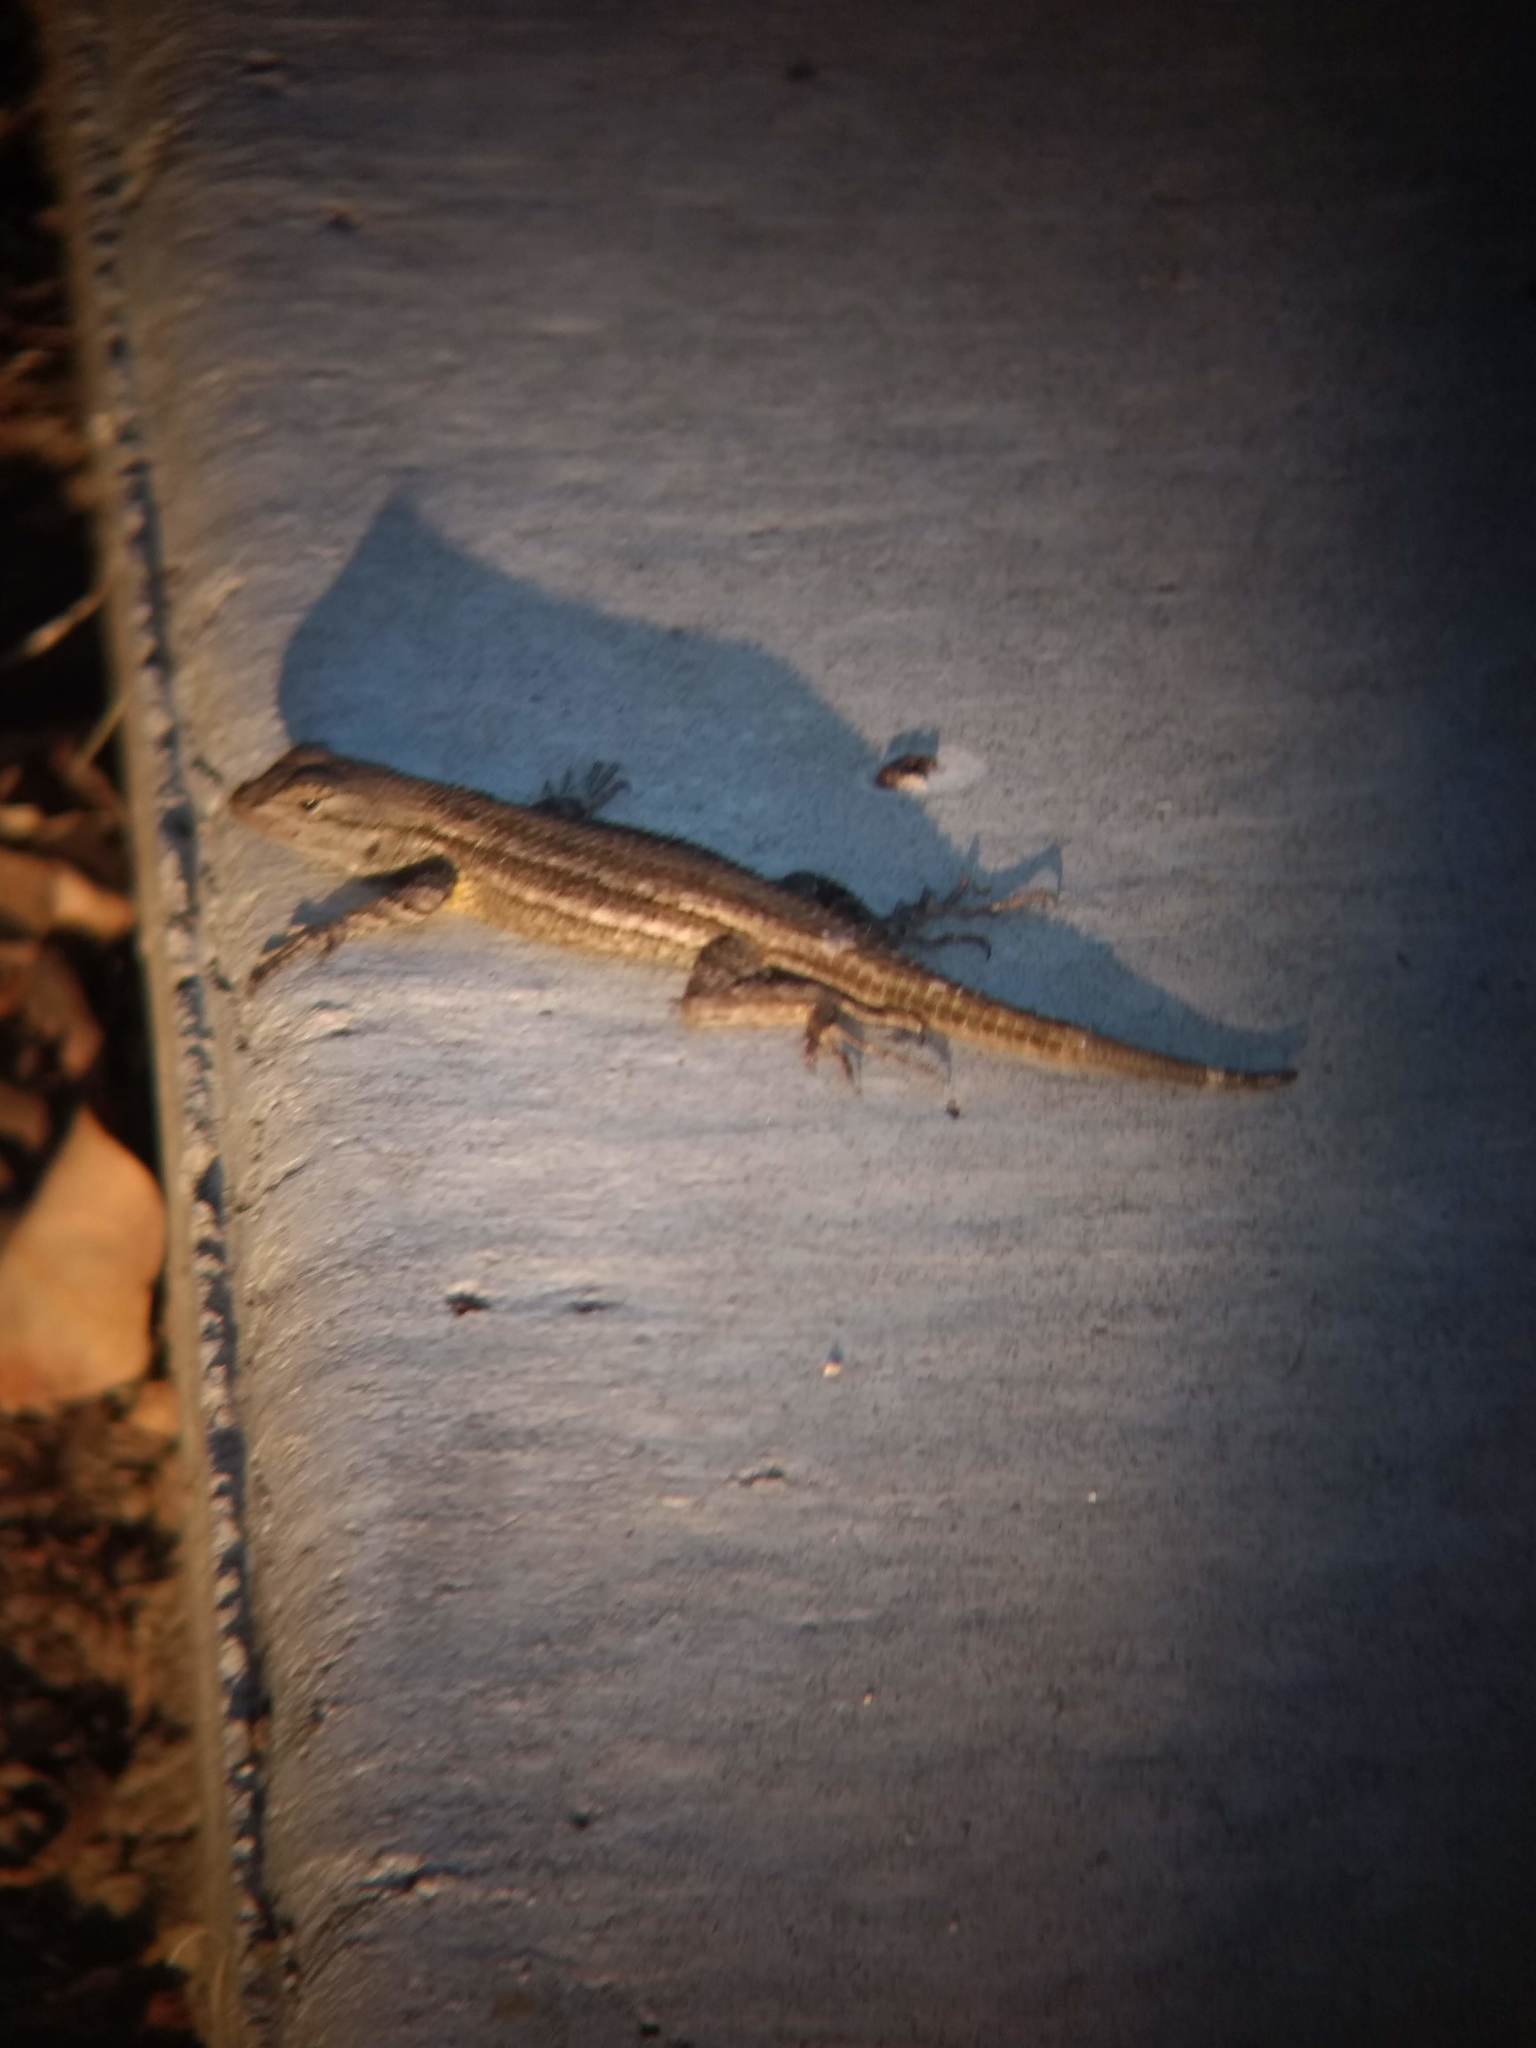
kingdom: Animalia
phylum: Chordata
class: Squamata
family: Phrynosomatidae
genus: Sceloporus
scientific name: Sceloporus occidentalis
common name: Western fence lizard
